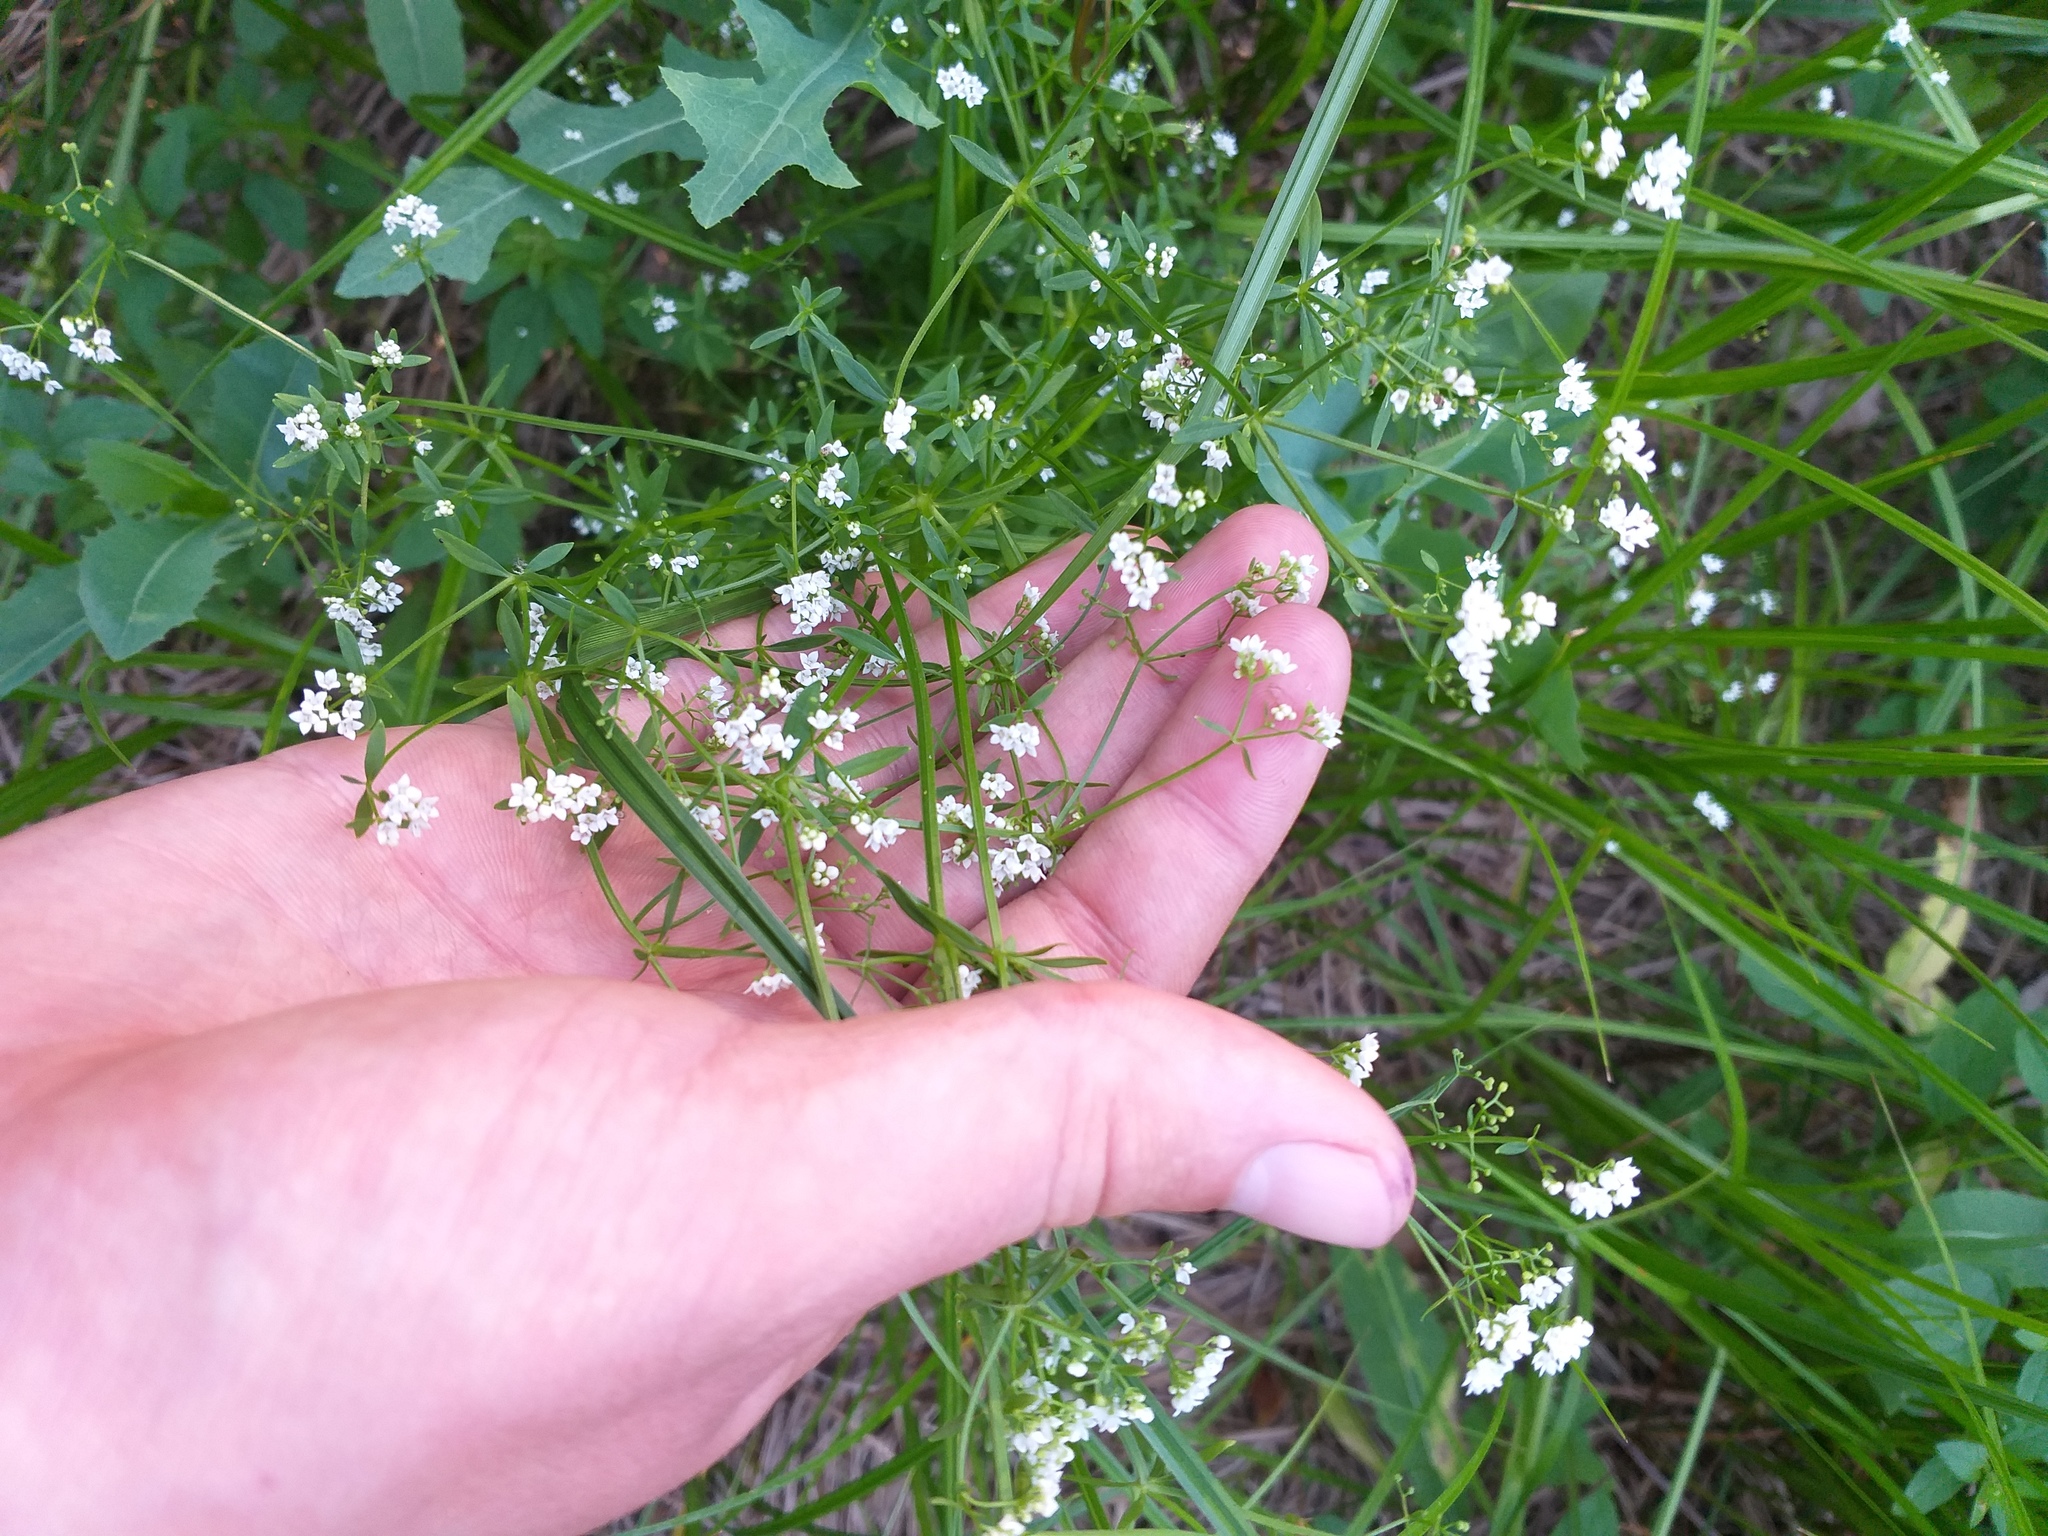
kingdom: Plantae
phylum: Tracheophyta
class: Magnoliopsida
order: Gentianales
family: Rubiaceae
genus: Galium
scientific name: Galium palustre
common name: Common marsh-bedstraw
